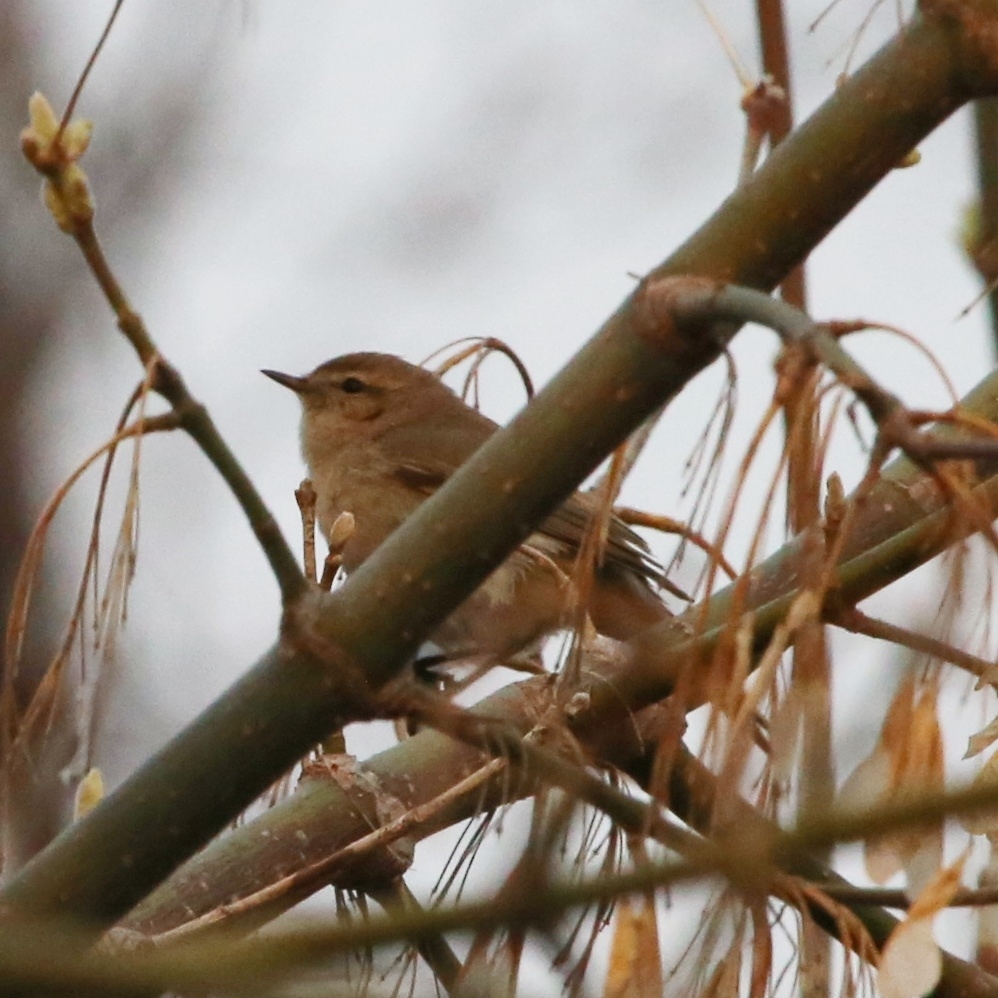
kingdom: Animalia
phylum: Chordata
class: Aves
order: Passeriformes
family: Phylloscopidae
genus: Phylloscopus
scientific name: Phylloscopus collybita
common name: Common chiffchaff
